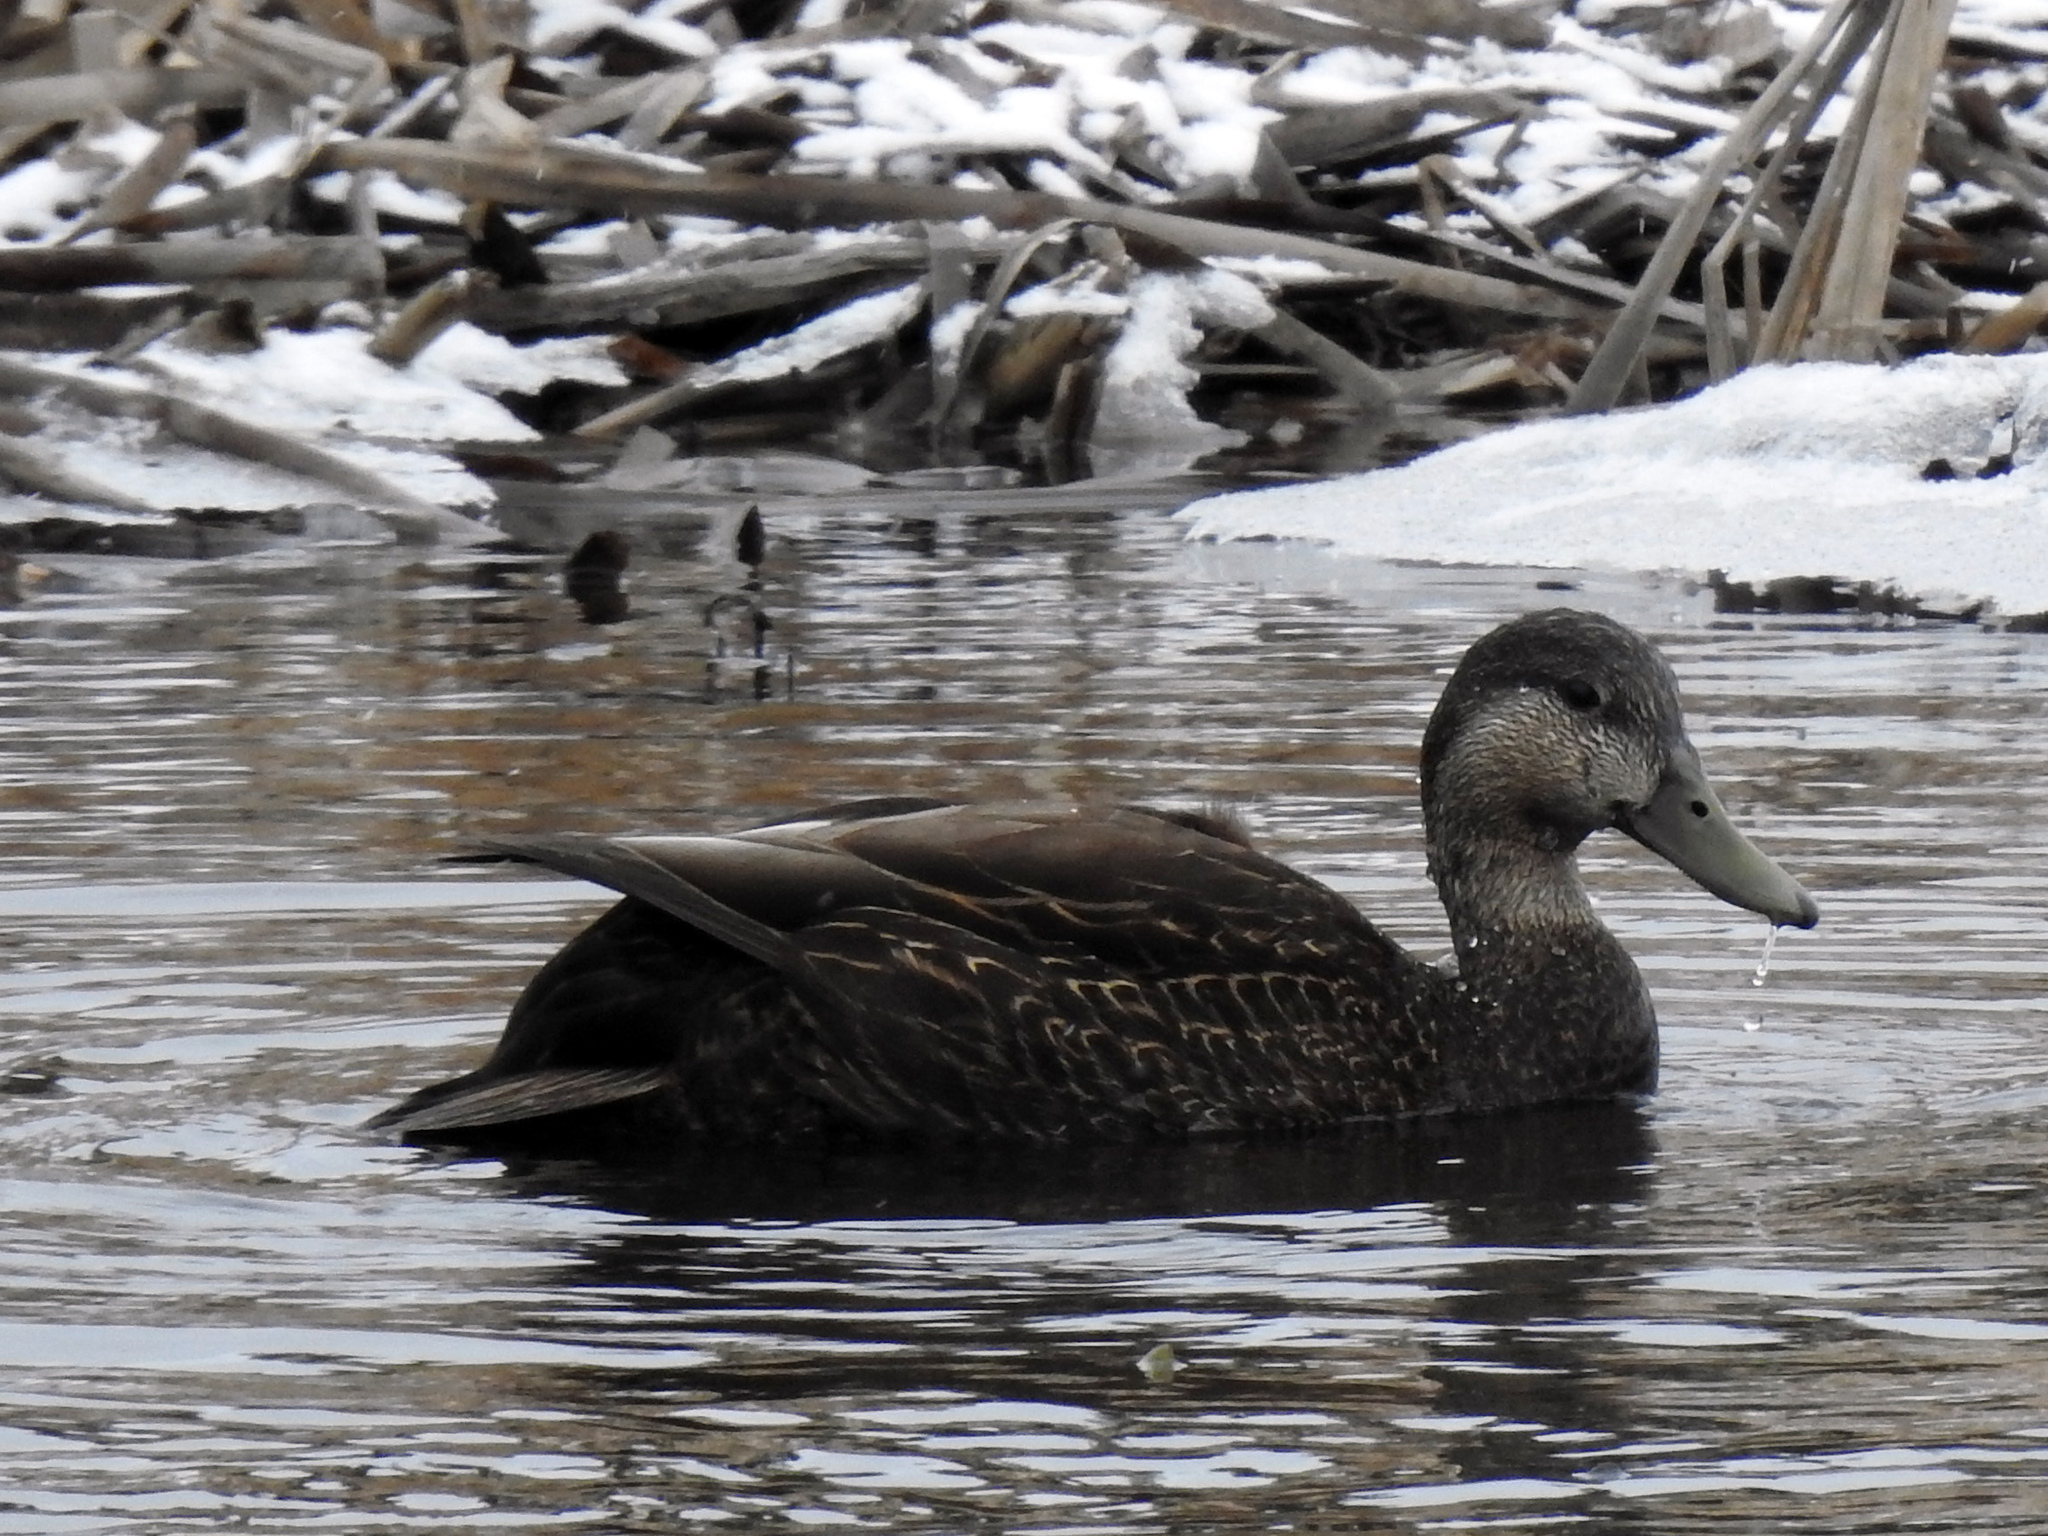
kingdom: Animalia
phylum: Chordata
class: Aves
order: Anseriformes
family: Anatidae
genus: Anas
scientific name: Anas rubripes
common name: American black duck
